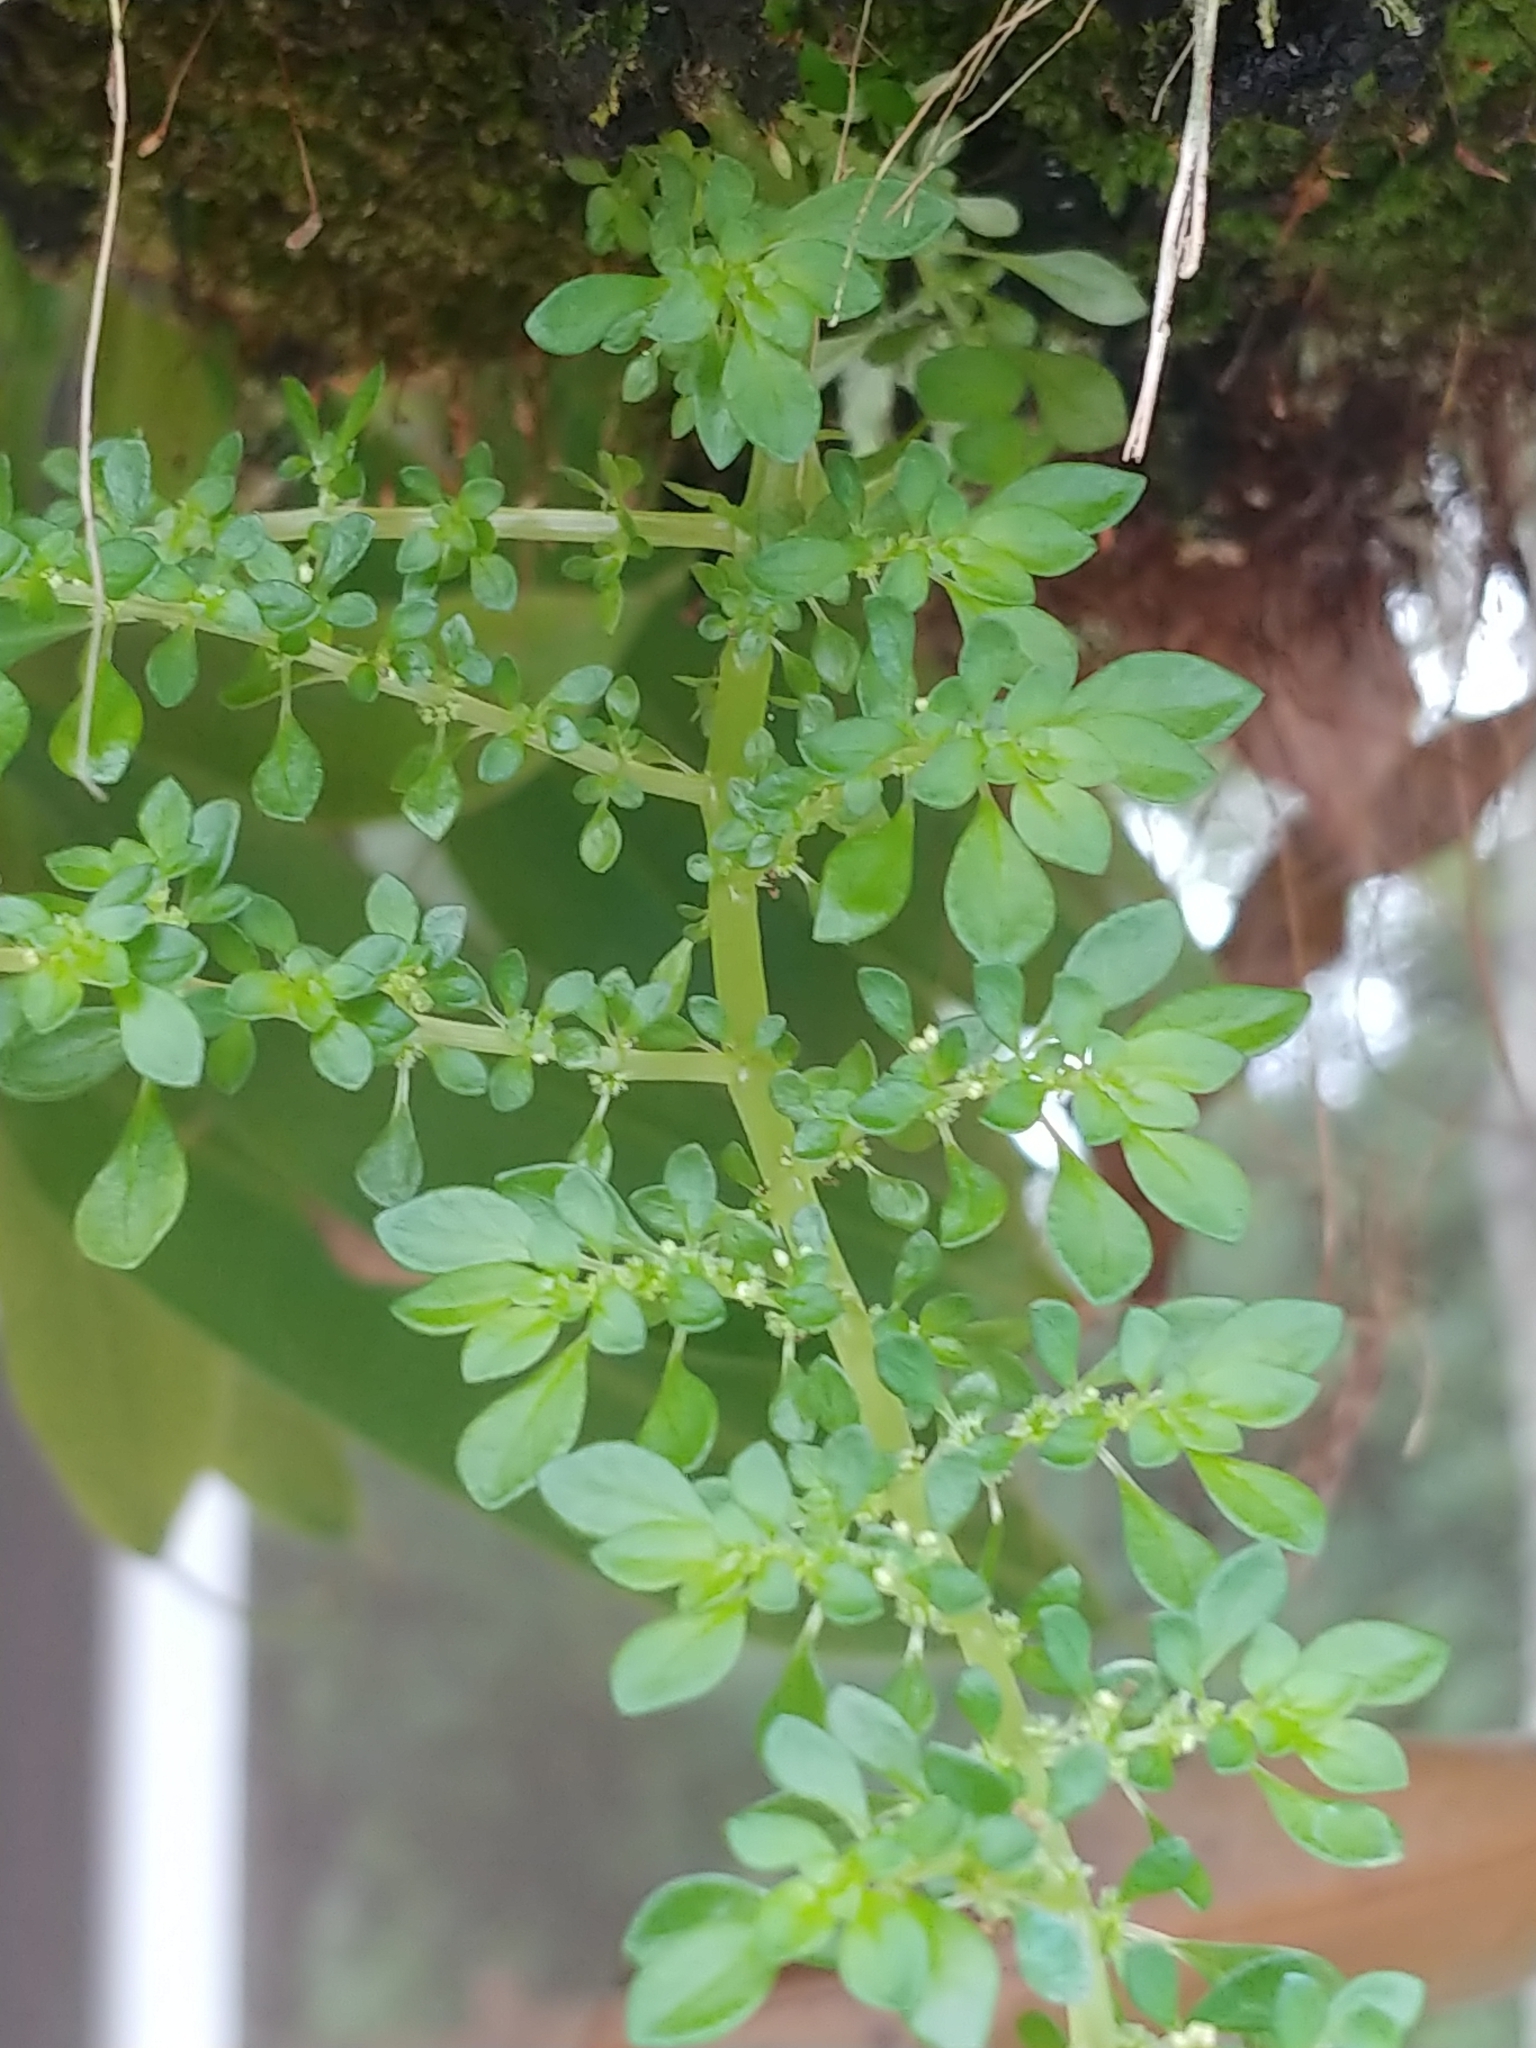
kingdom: Plantae
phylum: Tracheophyta
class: Magnoliopsida
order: Rosales
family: Urticaceae
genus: Pilea
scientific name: Pilea microphylla
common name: Artillery-plant
